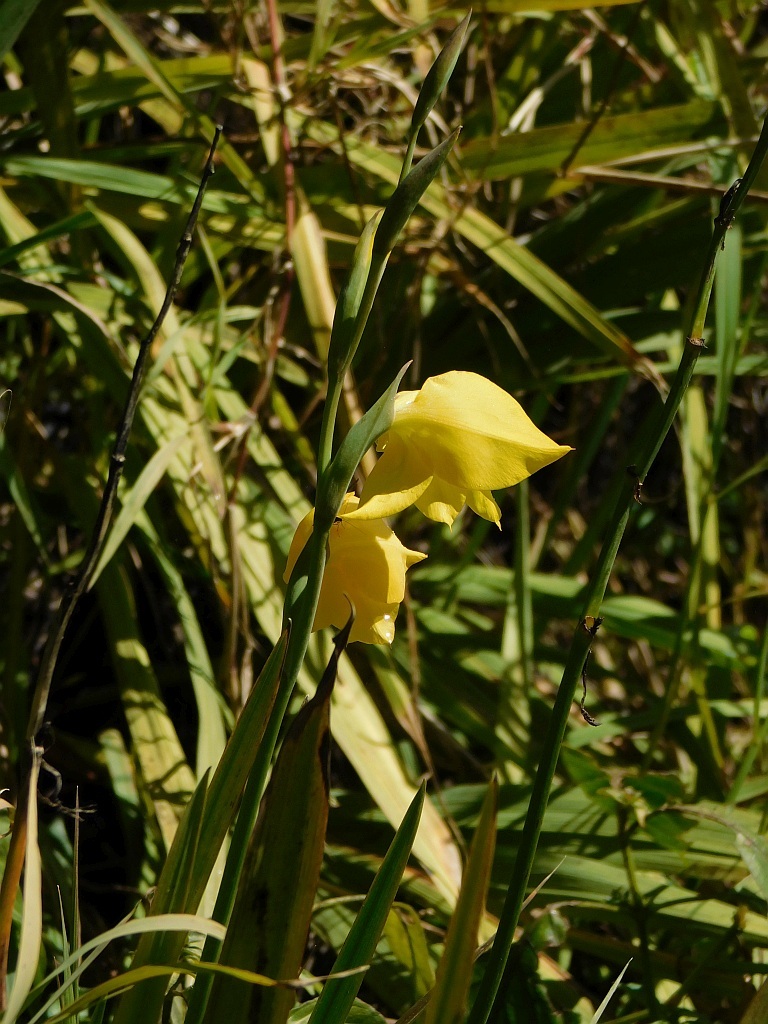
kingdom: Plantae
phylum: Tracheophyta
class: Liliopsida
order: Asparagales
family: Iridaceae
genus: Gladiolus
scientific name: Gladiolus dalenii
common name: Cornflag
